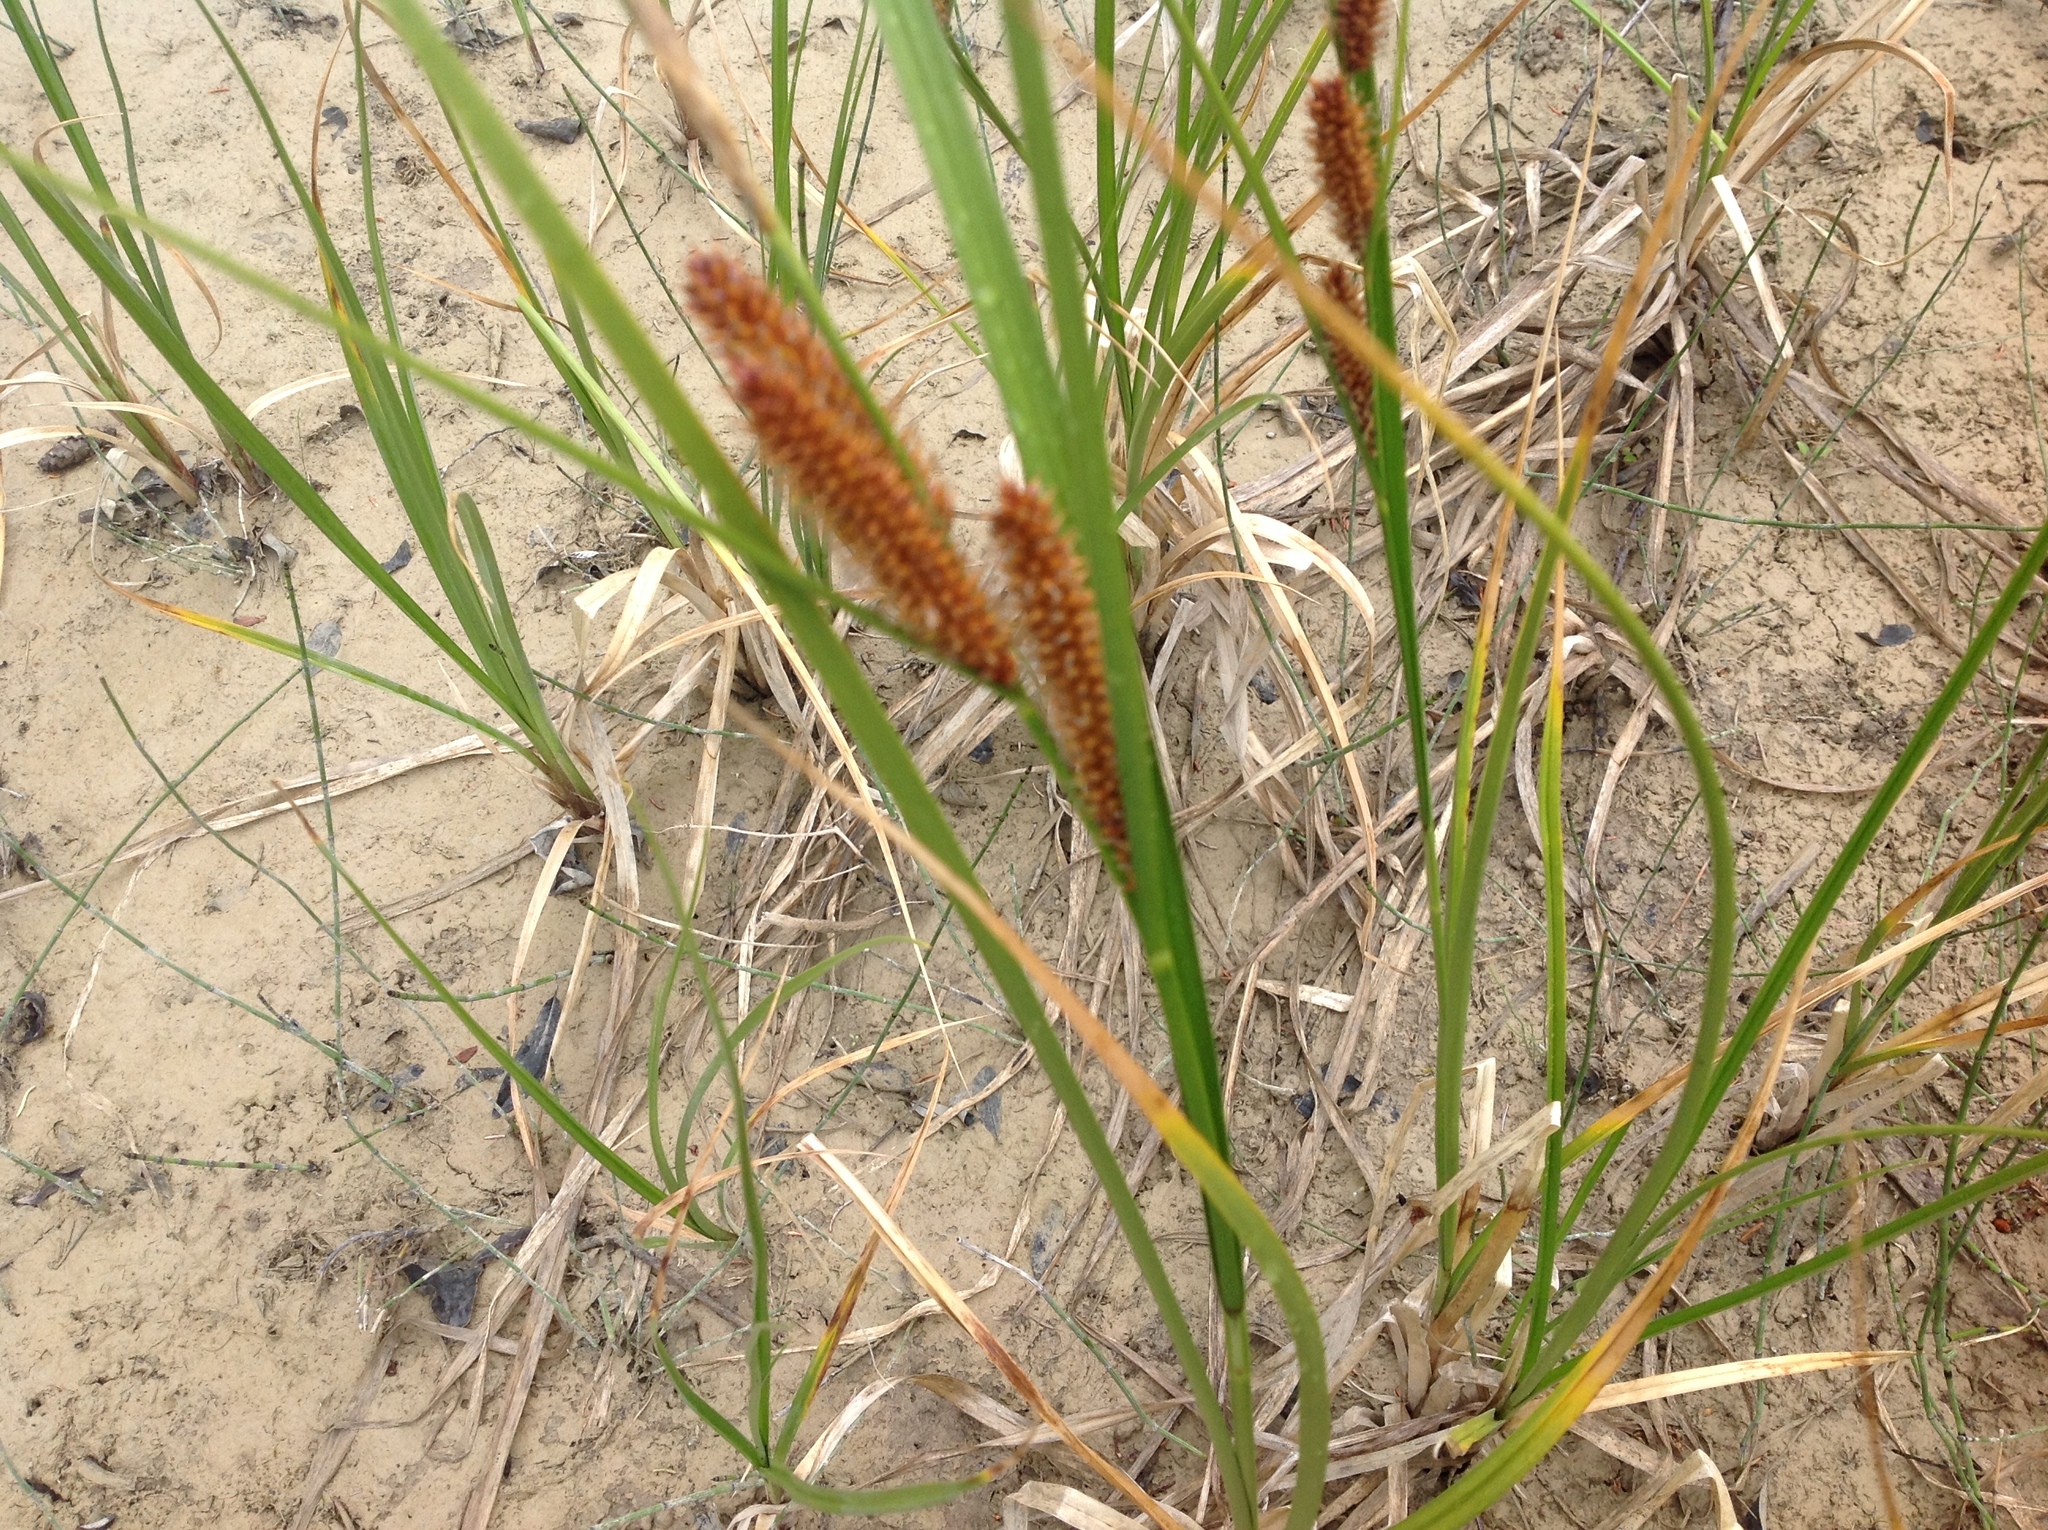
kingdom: Plantae
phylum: Tracheophyta
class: Liliopsida
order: Poales
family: Cyperaceae
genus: Carex
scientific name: Carex utriculata
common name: Beaked sedge
